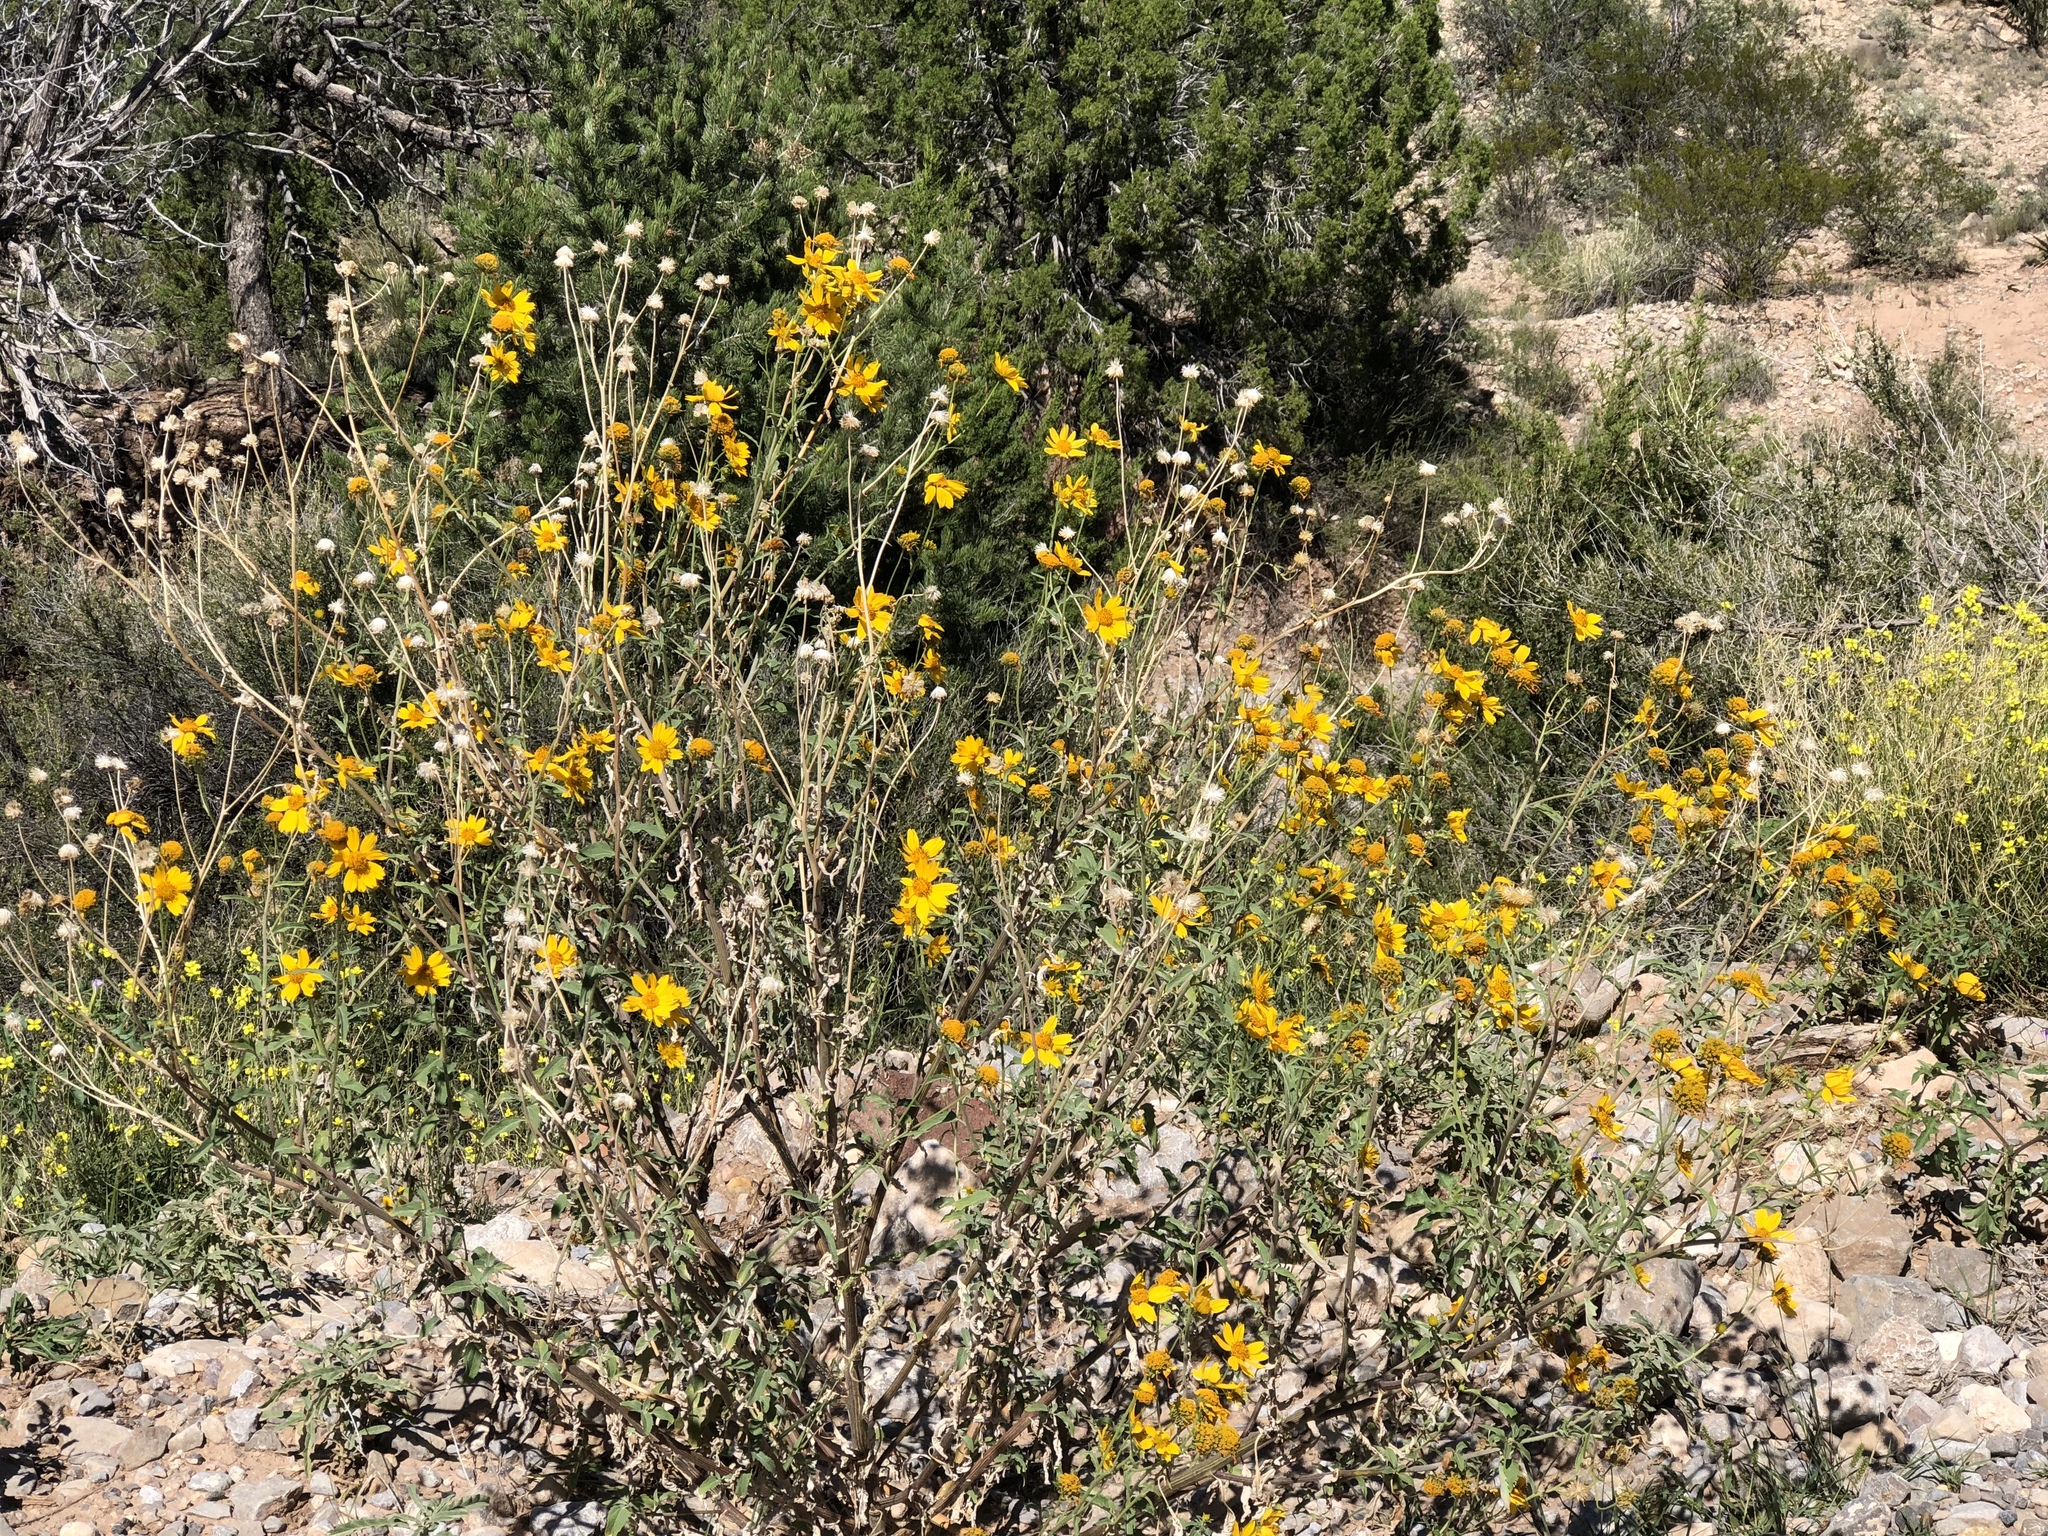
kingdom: Plantae
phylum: Tracheophyta
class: Magnoliopsida
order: Asterales
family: Asteraceae
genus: Sidneya
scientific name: Sidneya tenuifolia
